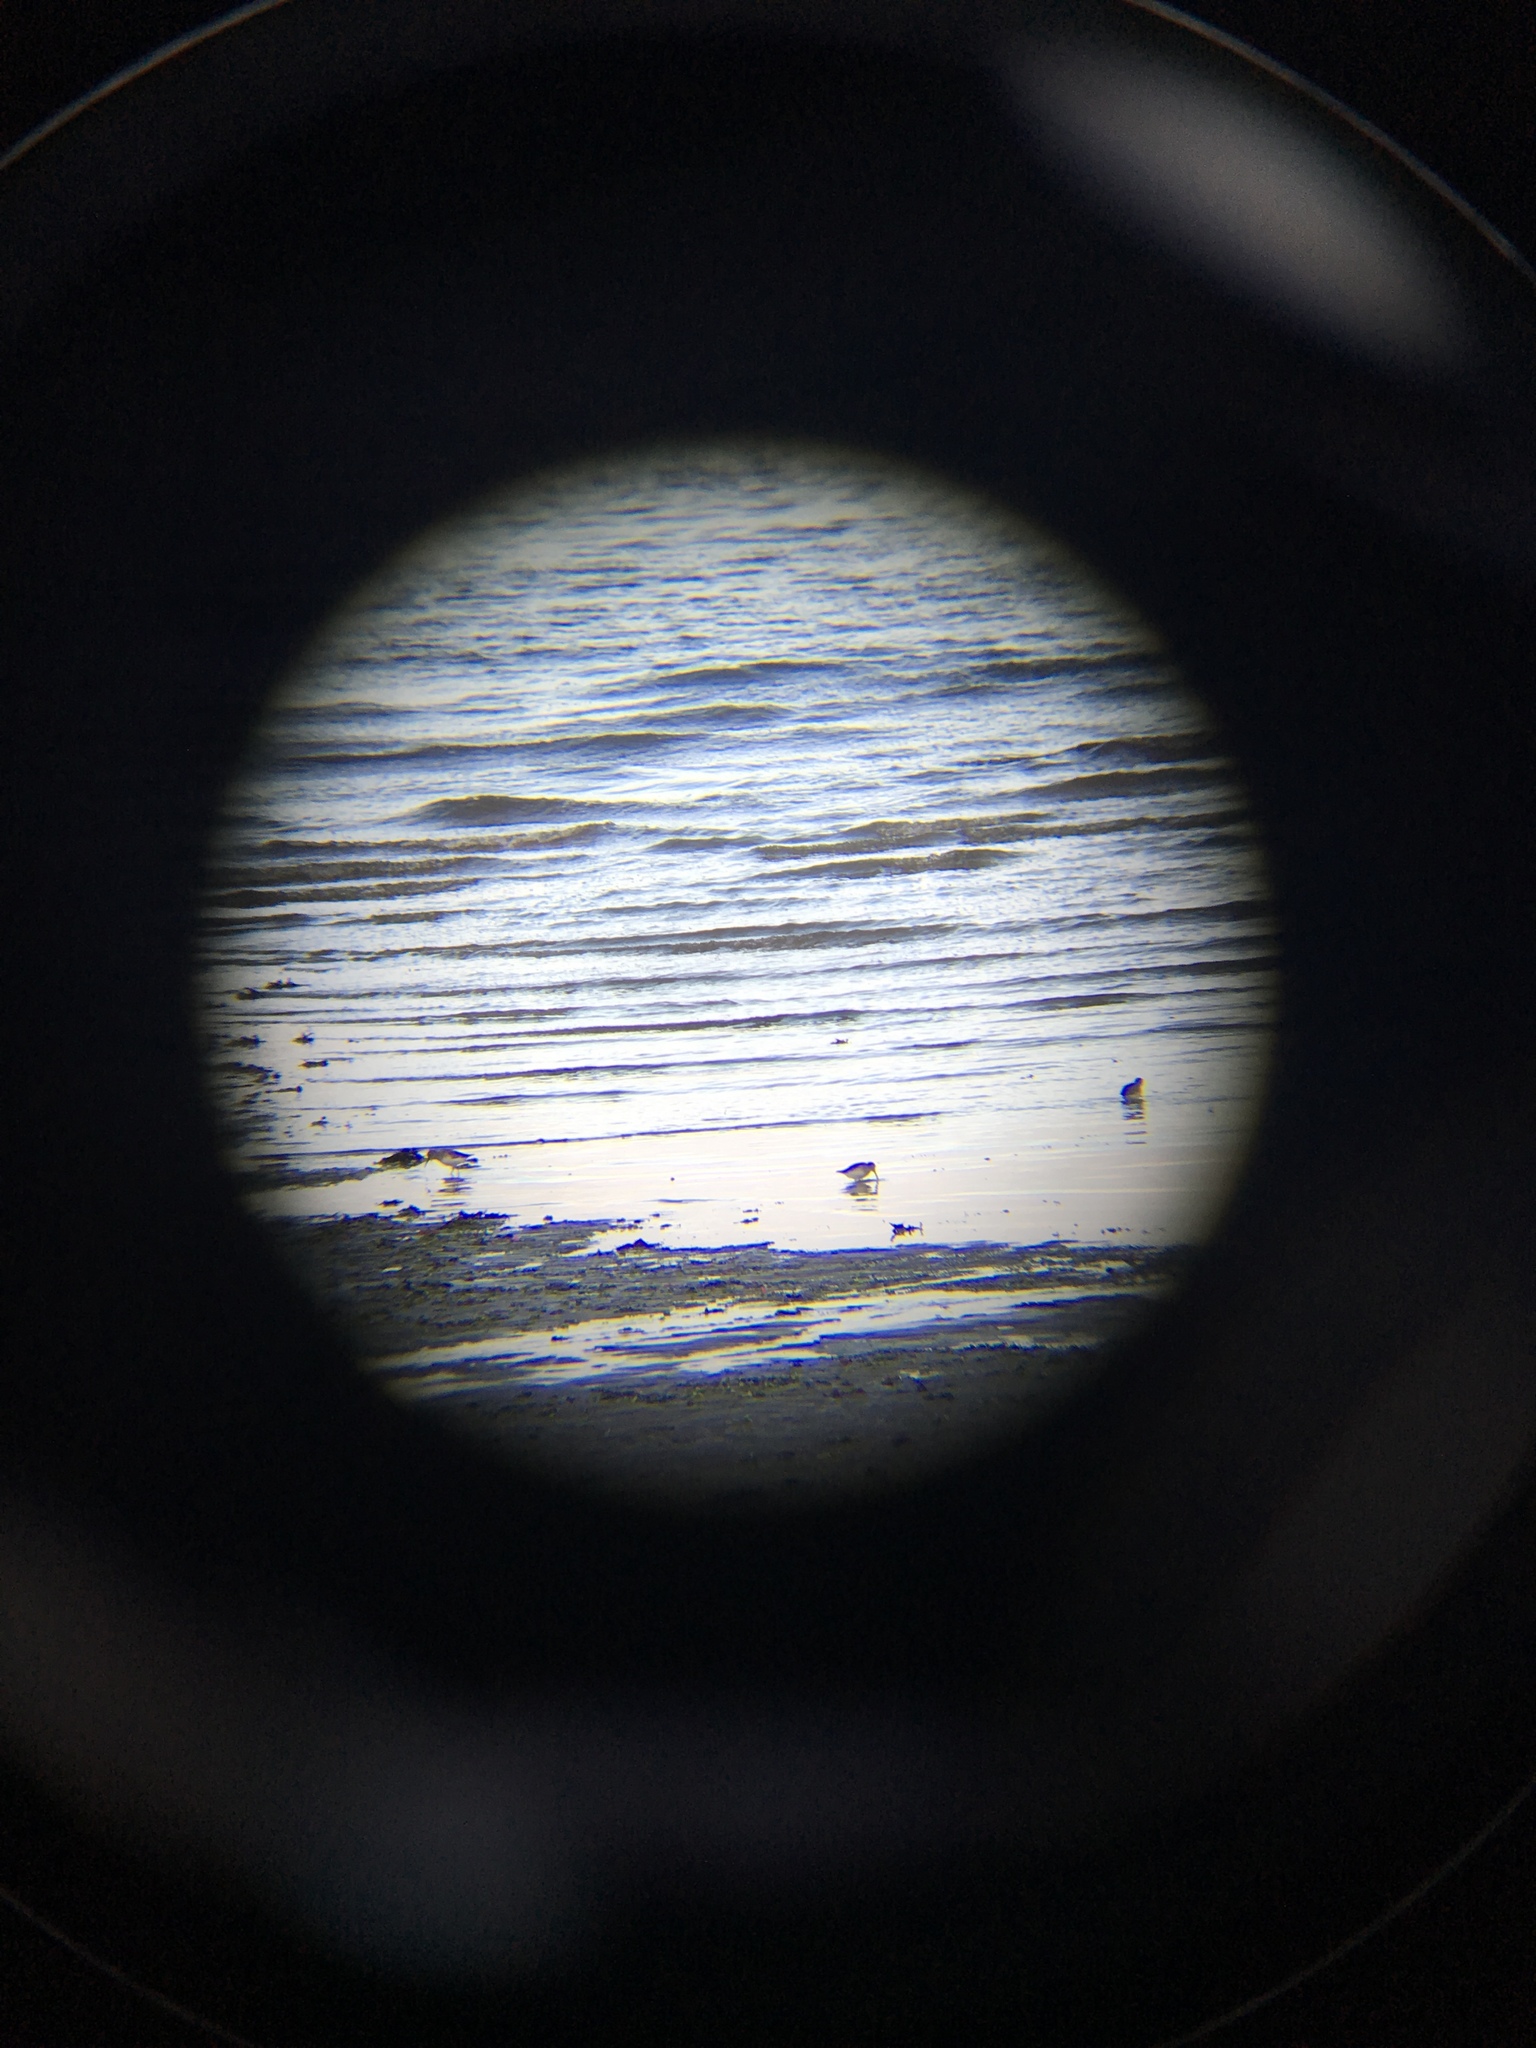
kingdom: Animalia
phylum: Chordata
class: Aves
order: Charadriiformes
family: Scolopacidae
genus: Calidris
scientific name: Calidris alpina
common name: Dunlin
